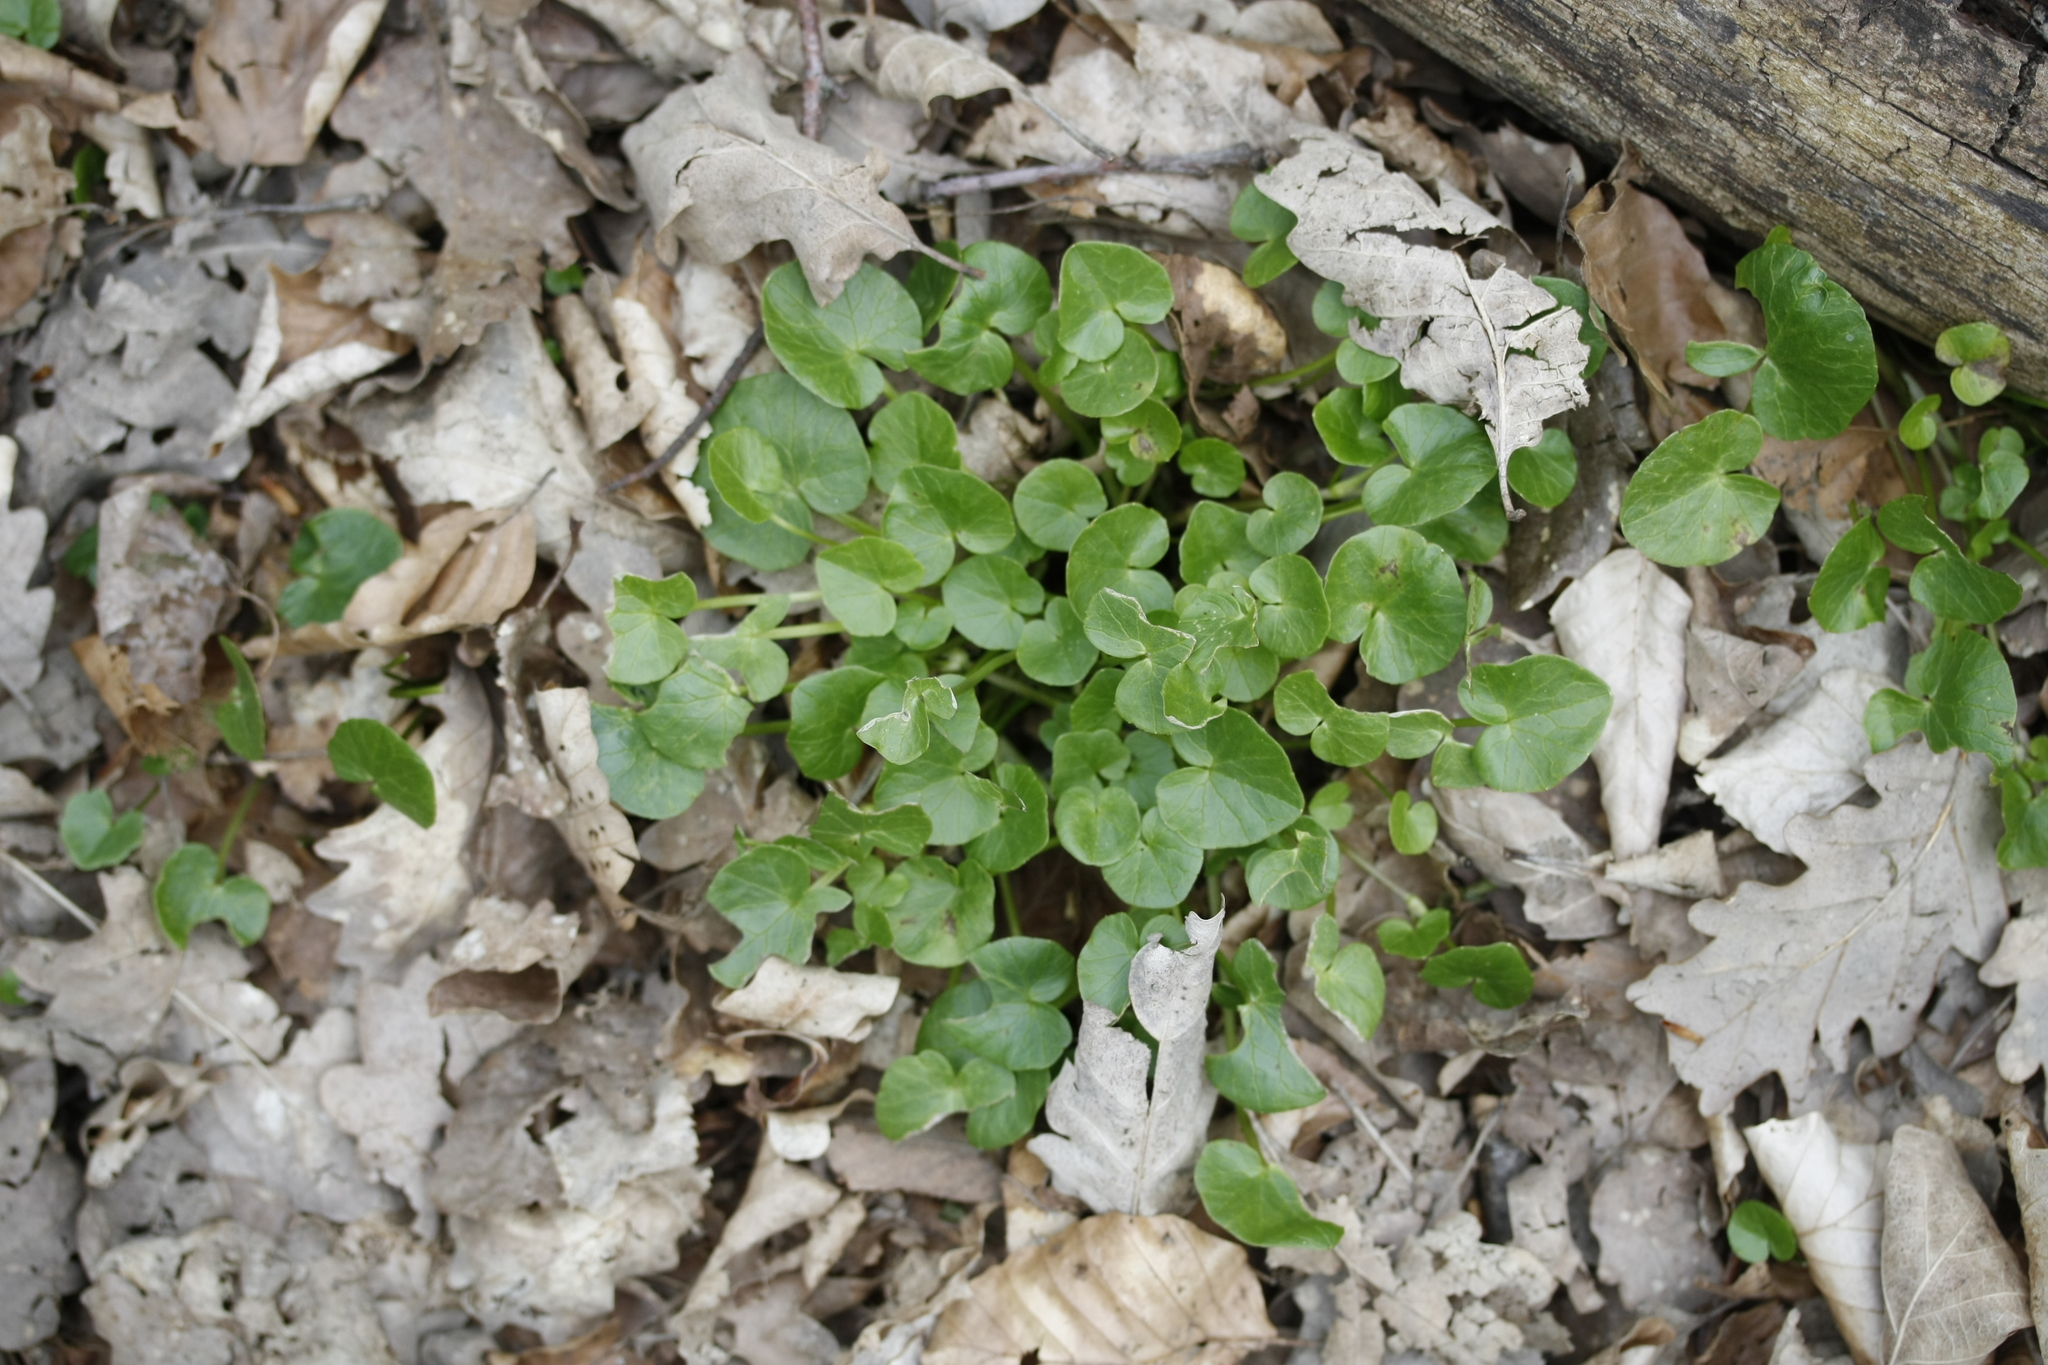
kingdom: Plantae
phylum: Tracheophyta
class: Magnoliopsida
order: Ranunculales
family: Ranunculaceae
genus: Ficaria
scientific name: Ficaria verna
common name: Lesser celandine
